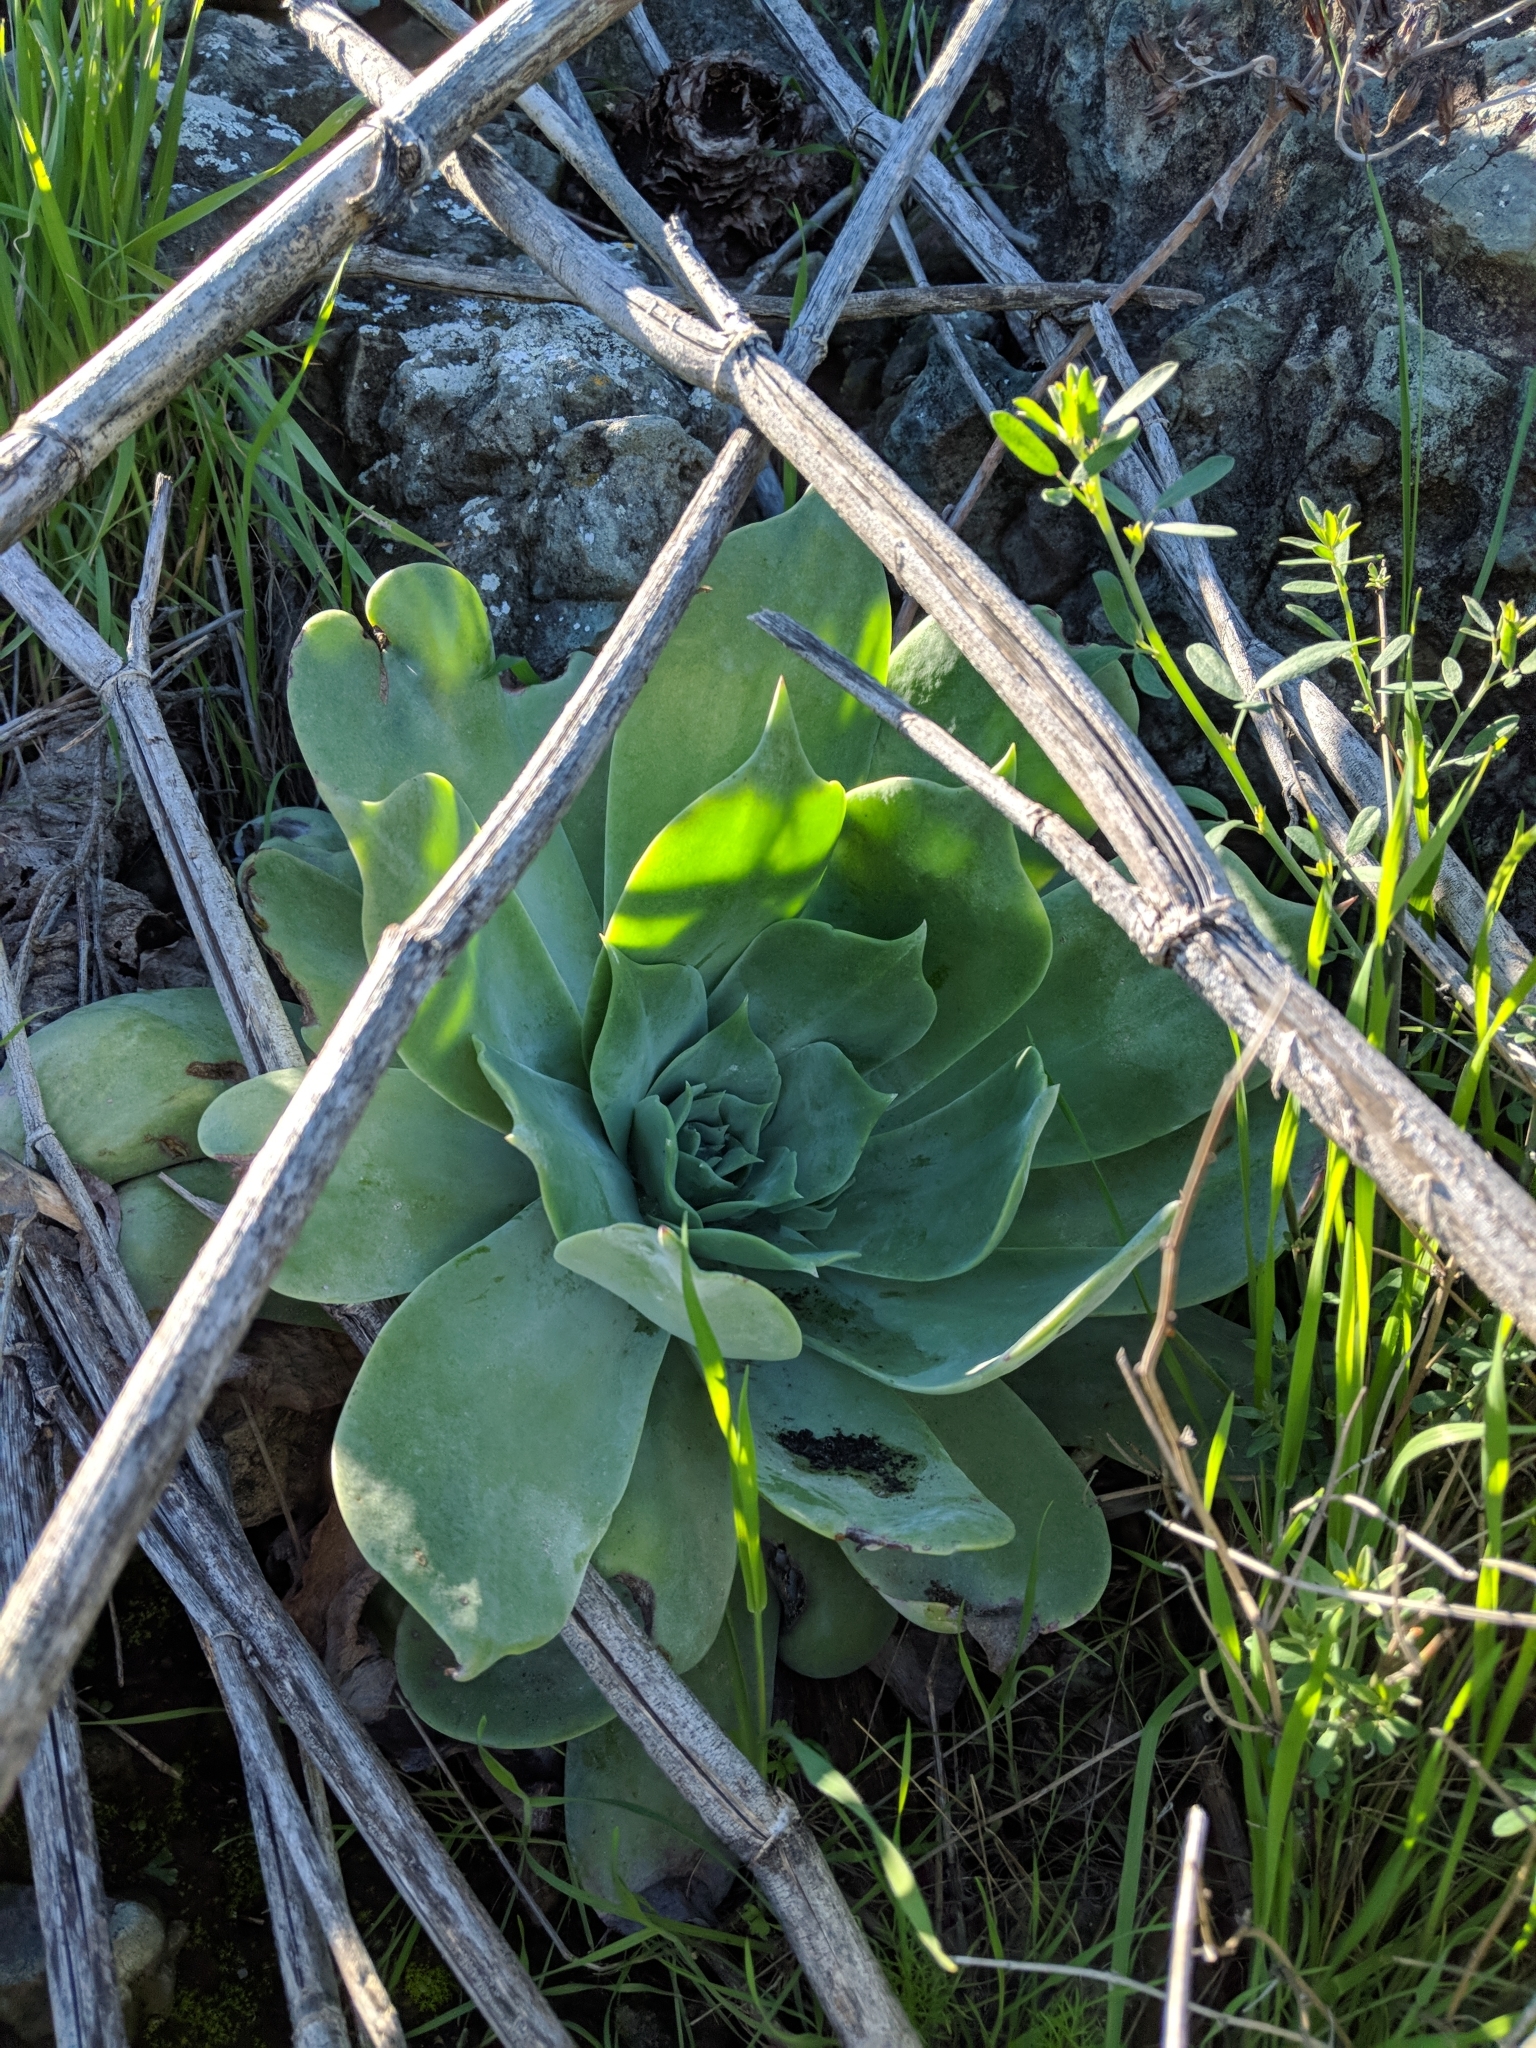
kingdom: Plantae
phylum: Tracheophyta
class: Magnoliopsida
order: Saxifragales
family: Crassulaceae
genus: Dudleya
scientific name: Dudleya pulverulenta
